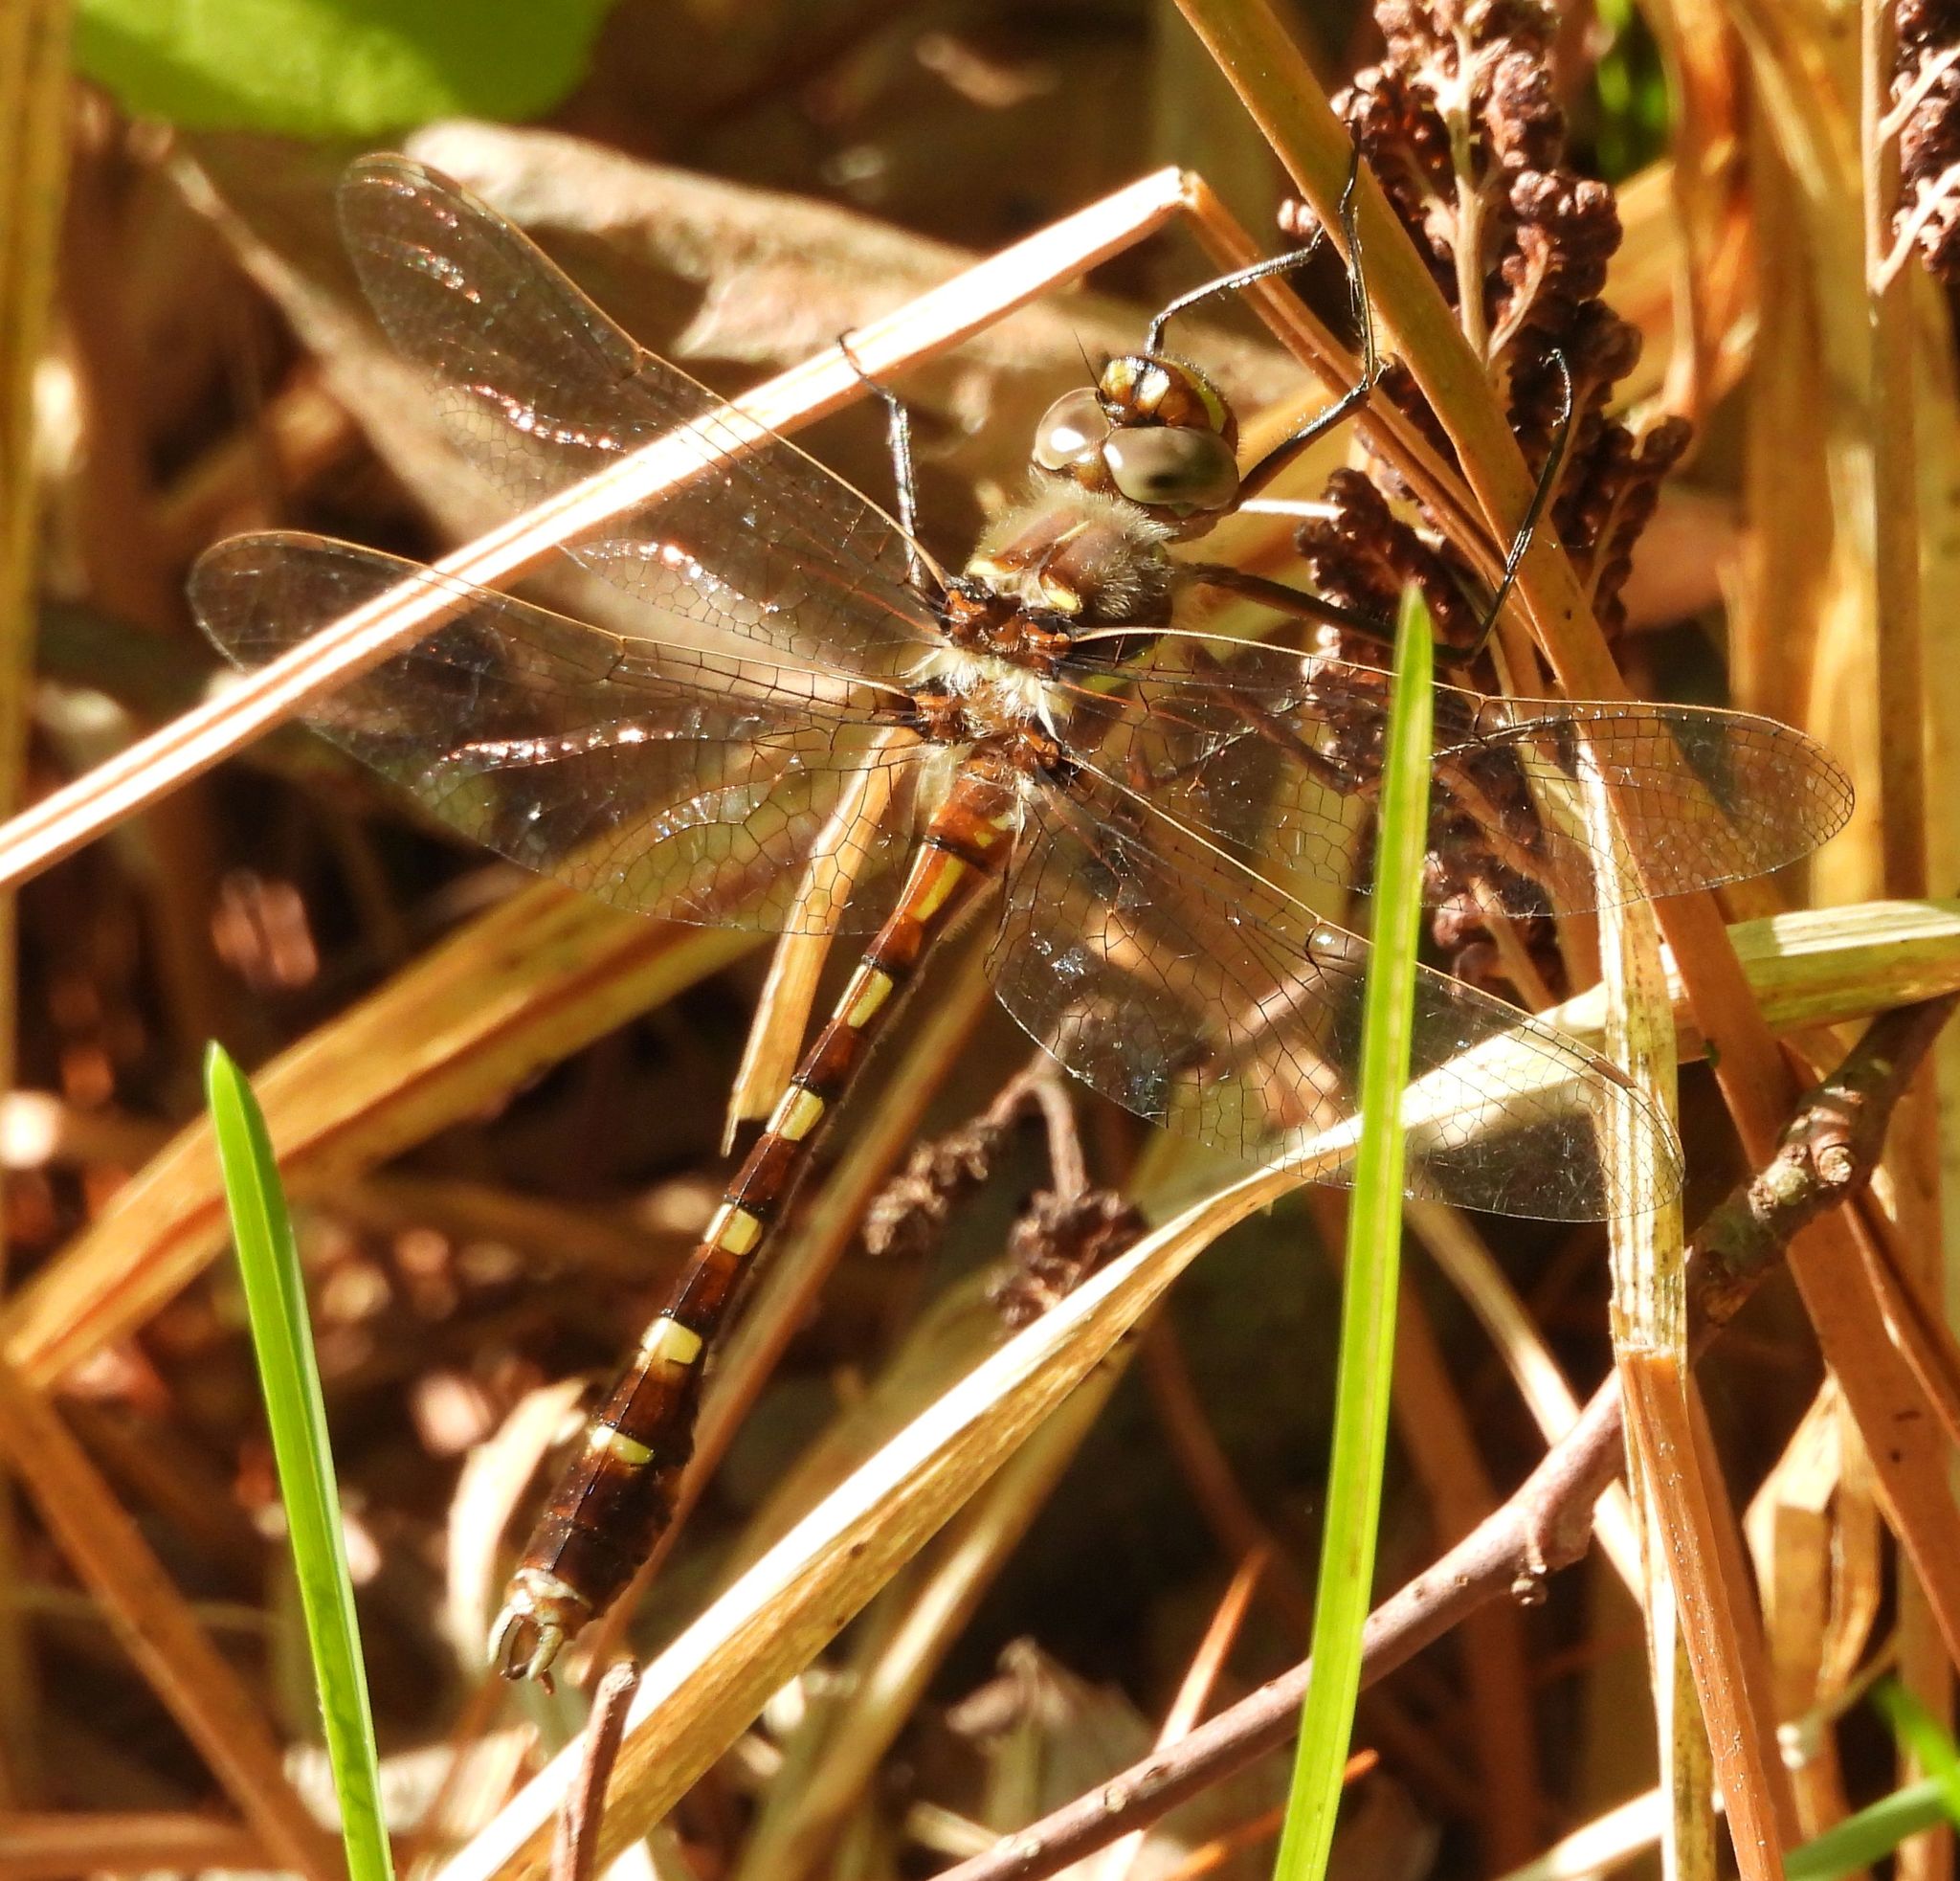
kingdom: Animalia
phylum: Arthropoda
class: Insecta
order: Odonata
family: Macromiidae
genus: Didymops
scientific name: Didymops transversa
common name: Stream cruiser
